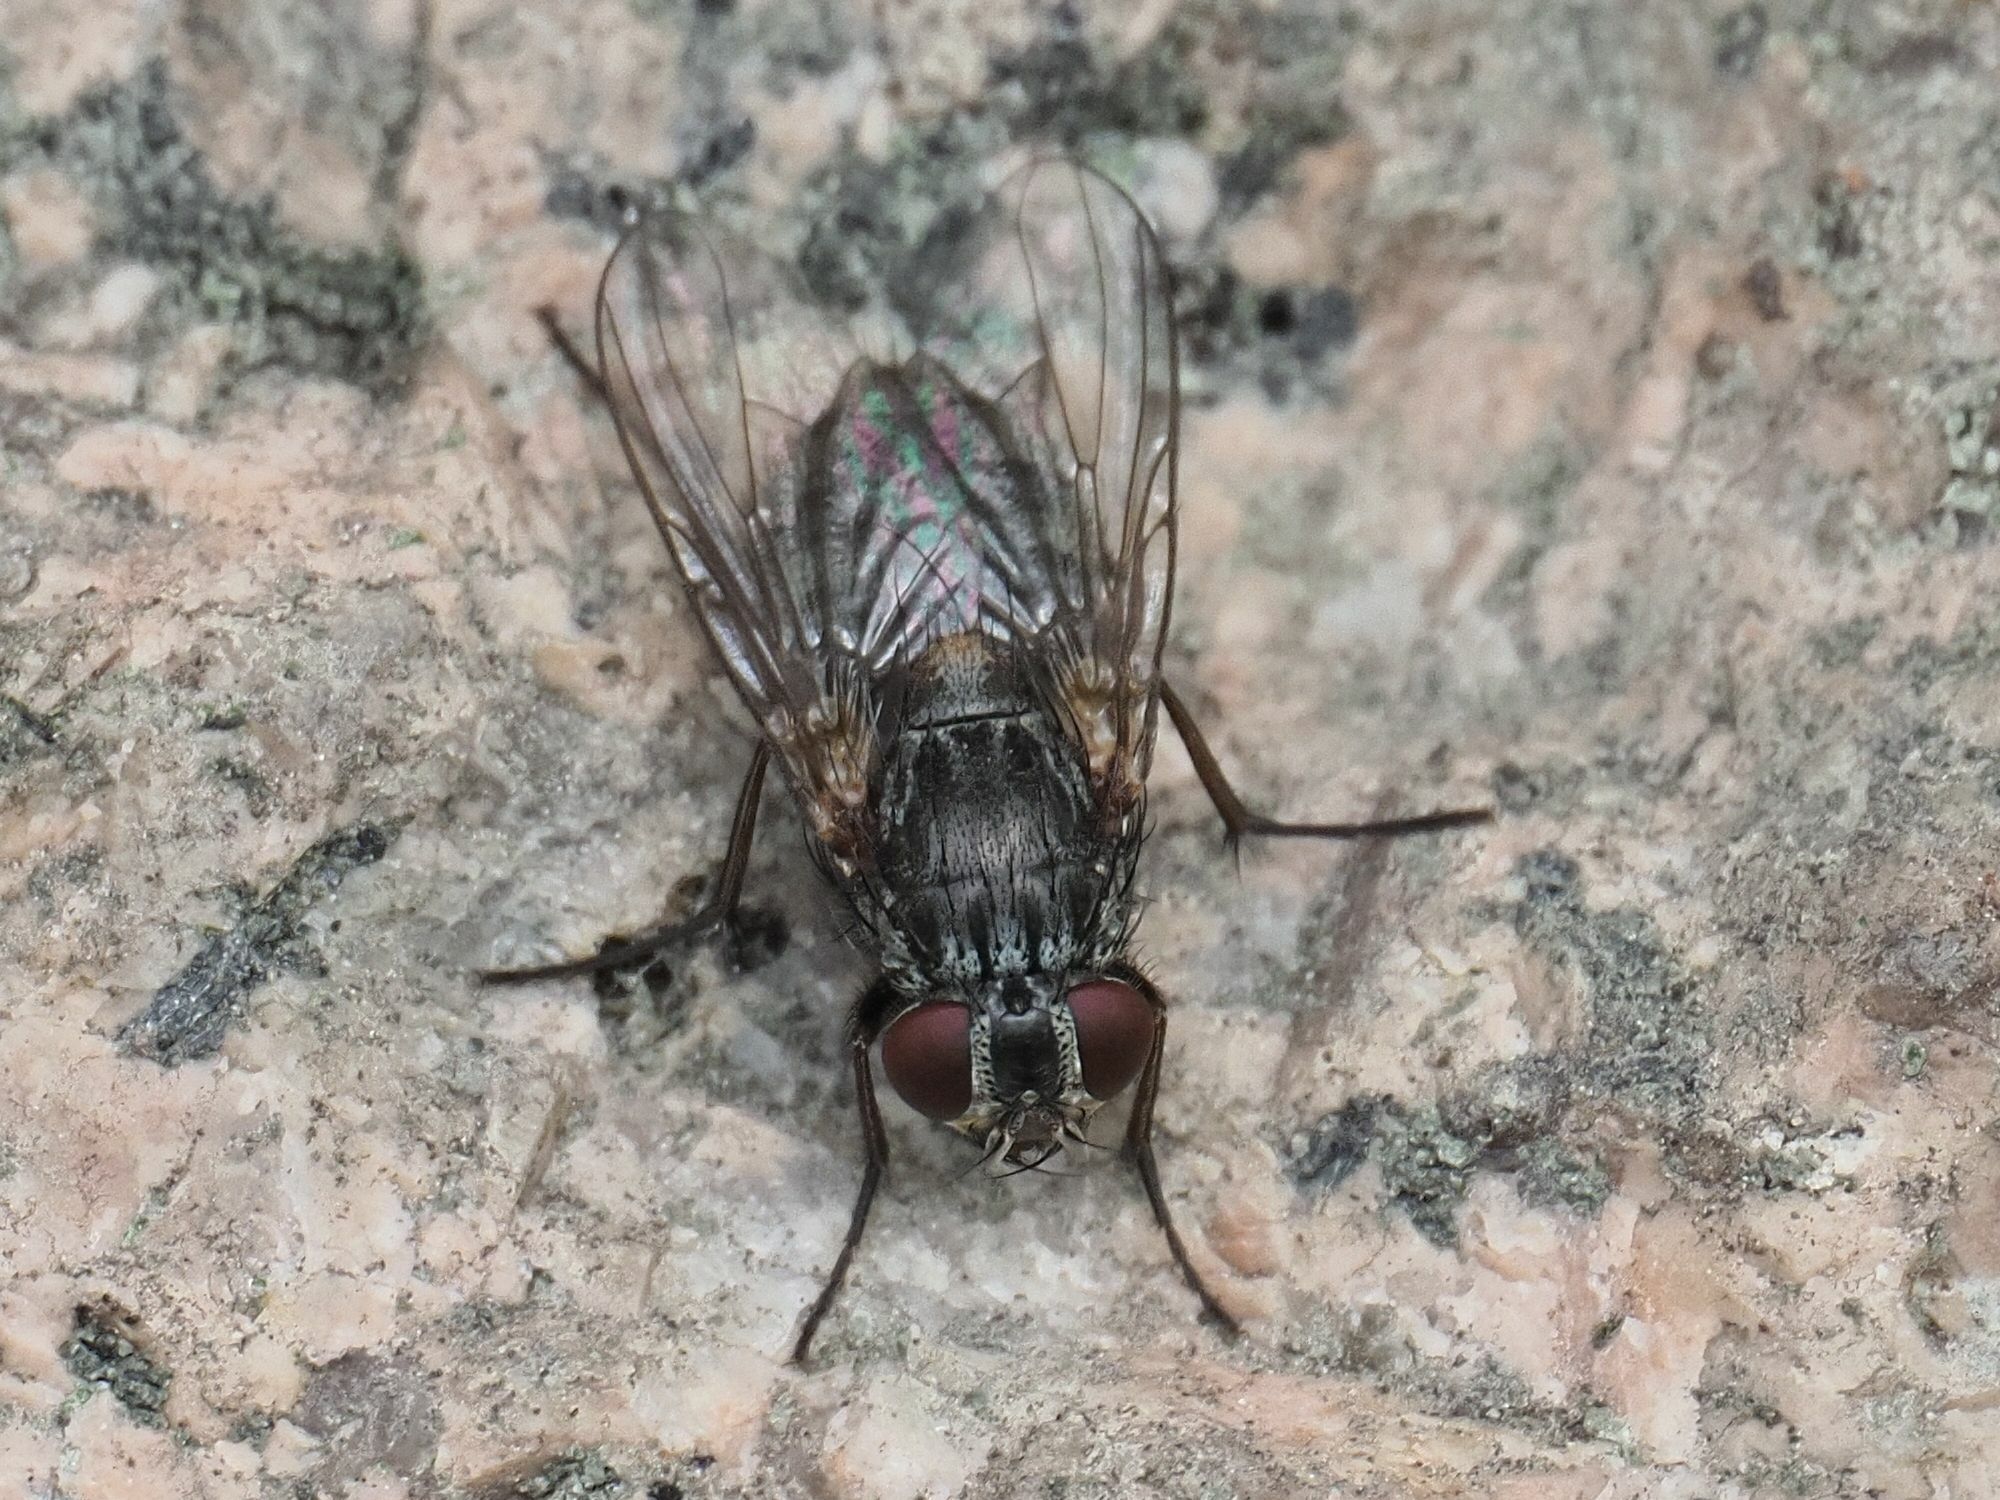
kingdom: Animalia
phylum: Arthropoda
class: Insecta
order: Diptera
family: Muscidae
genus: Muscina
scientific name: Muscina stabulans
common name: False stable fly
